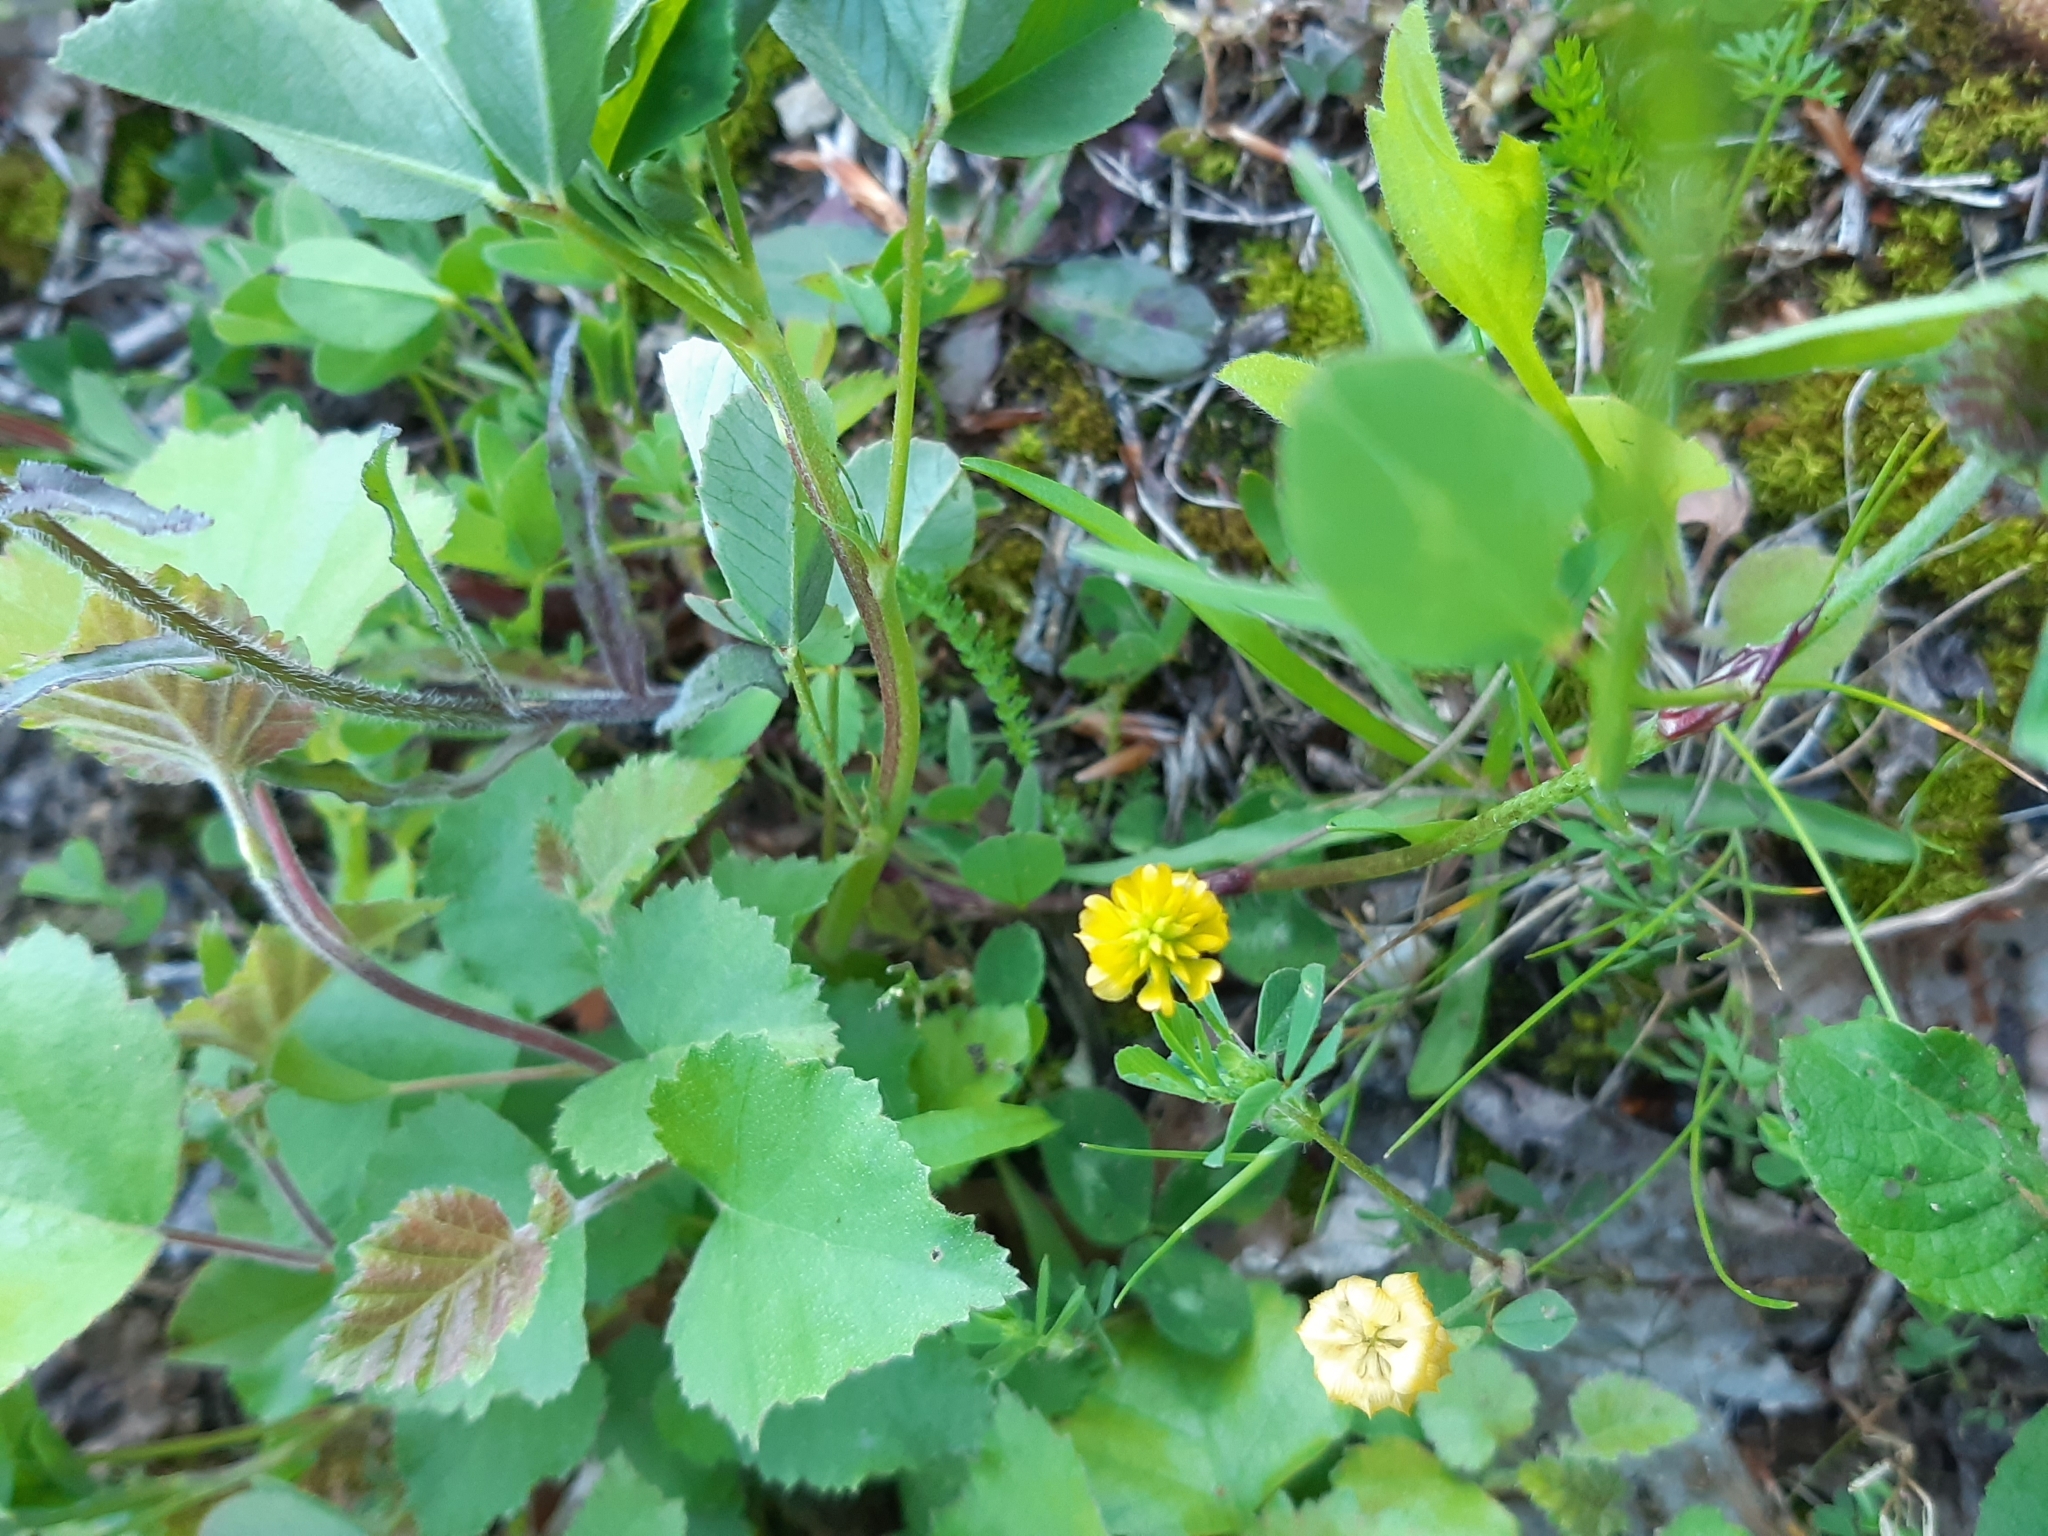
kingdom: Plantae
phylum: Tracheophyta
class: Magnoliopsida
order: Fabales
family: Fabaceae
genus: Trifolium
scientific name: Trifolium campestre
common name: Field clover
